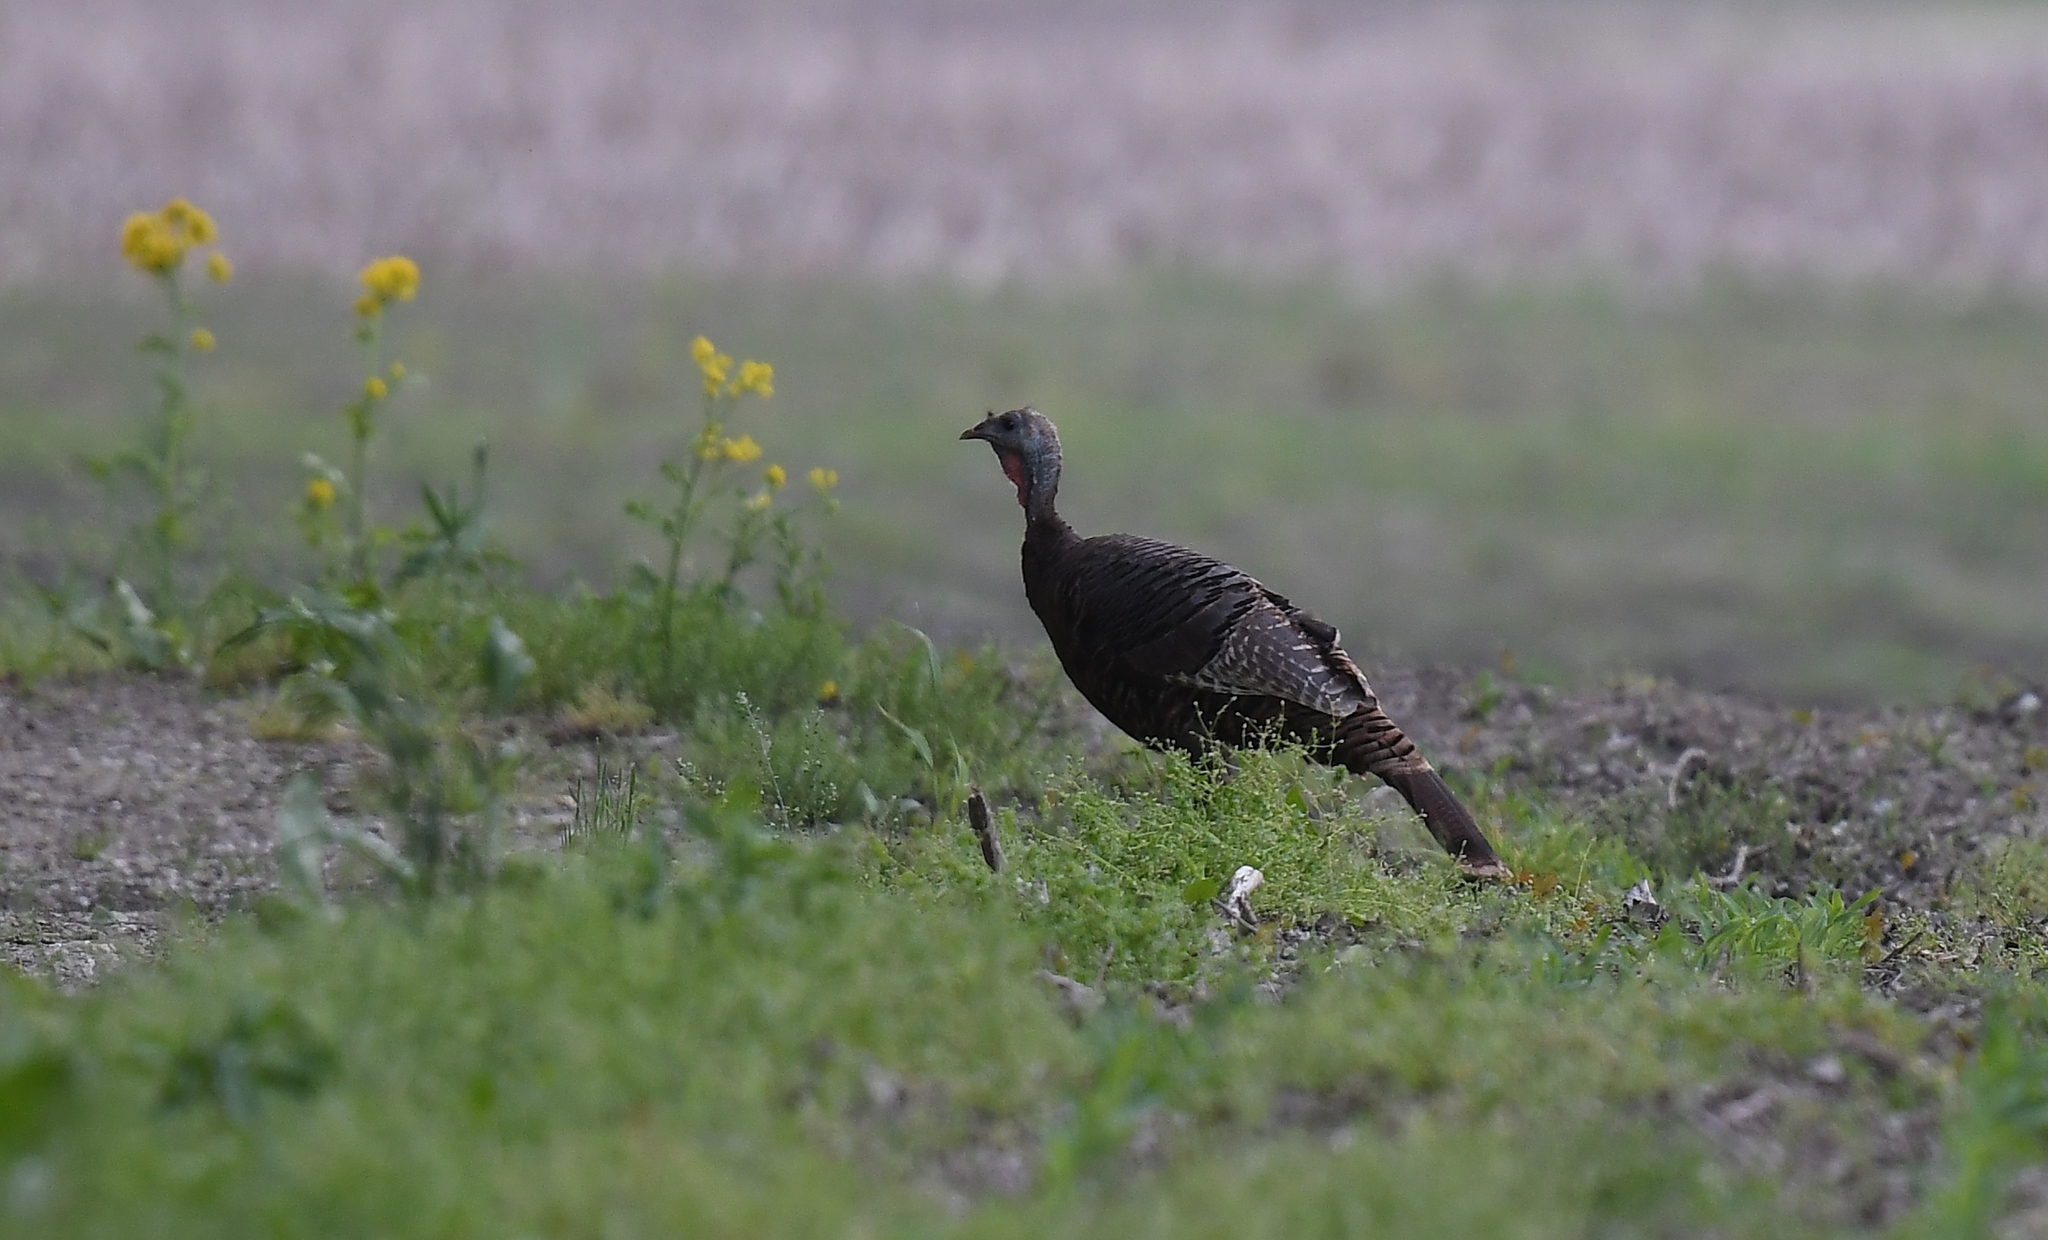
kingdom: Animalia
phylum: Chordata
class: Aves
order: Galliformes
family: Phasianidae
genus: Meleagris
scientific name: Meleagris gallopavo
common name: Wild turkey
